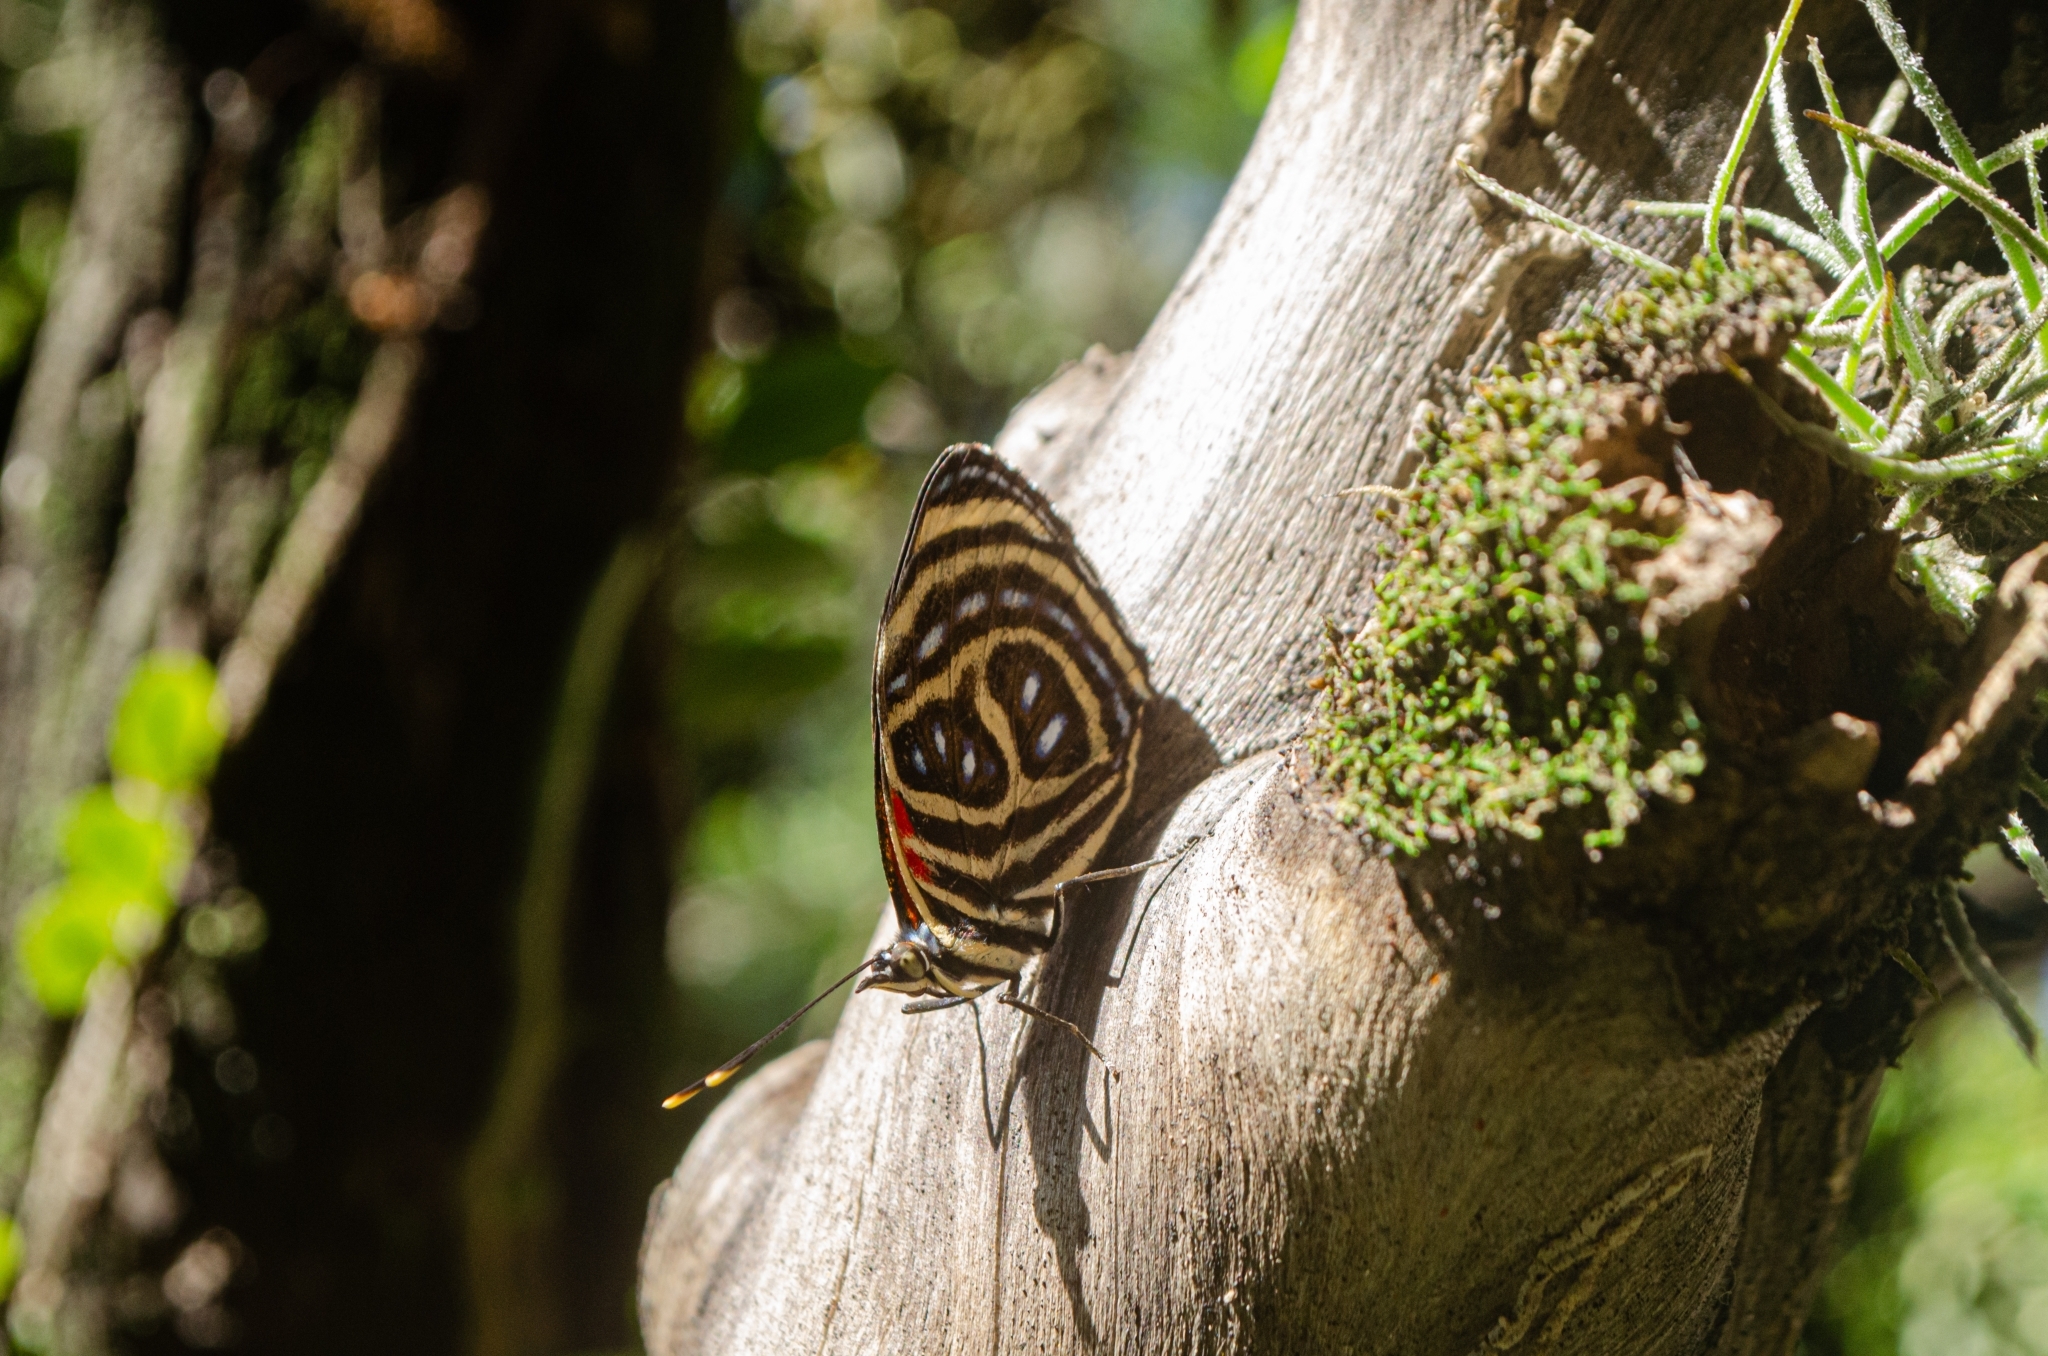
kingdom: Animalia
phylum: Arthropoda
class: Insecta
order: Lepidoptera
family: Nymphalidae
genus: Catagramma
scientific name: Catagramma pygas
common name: Godart's numberwing
